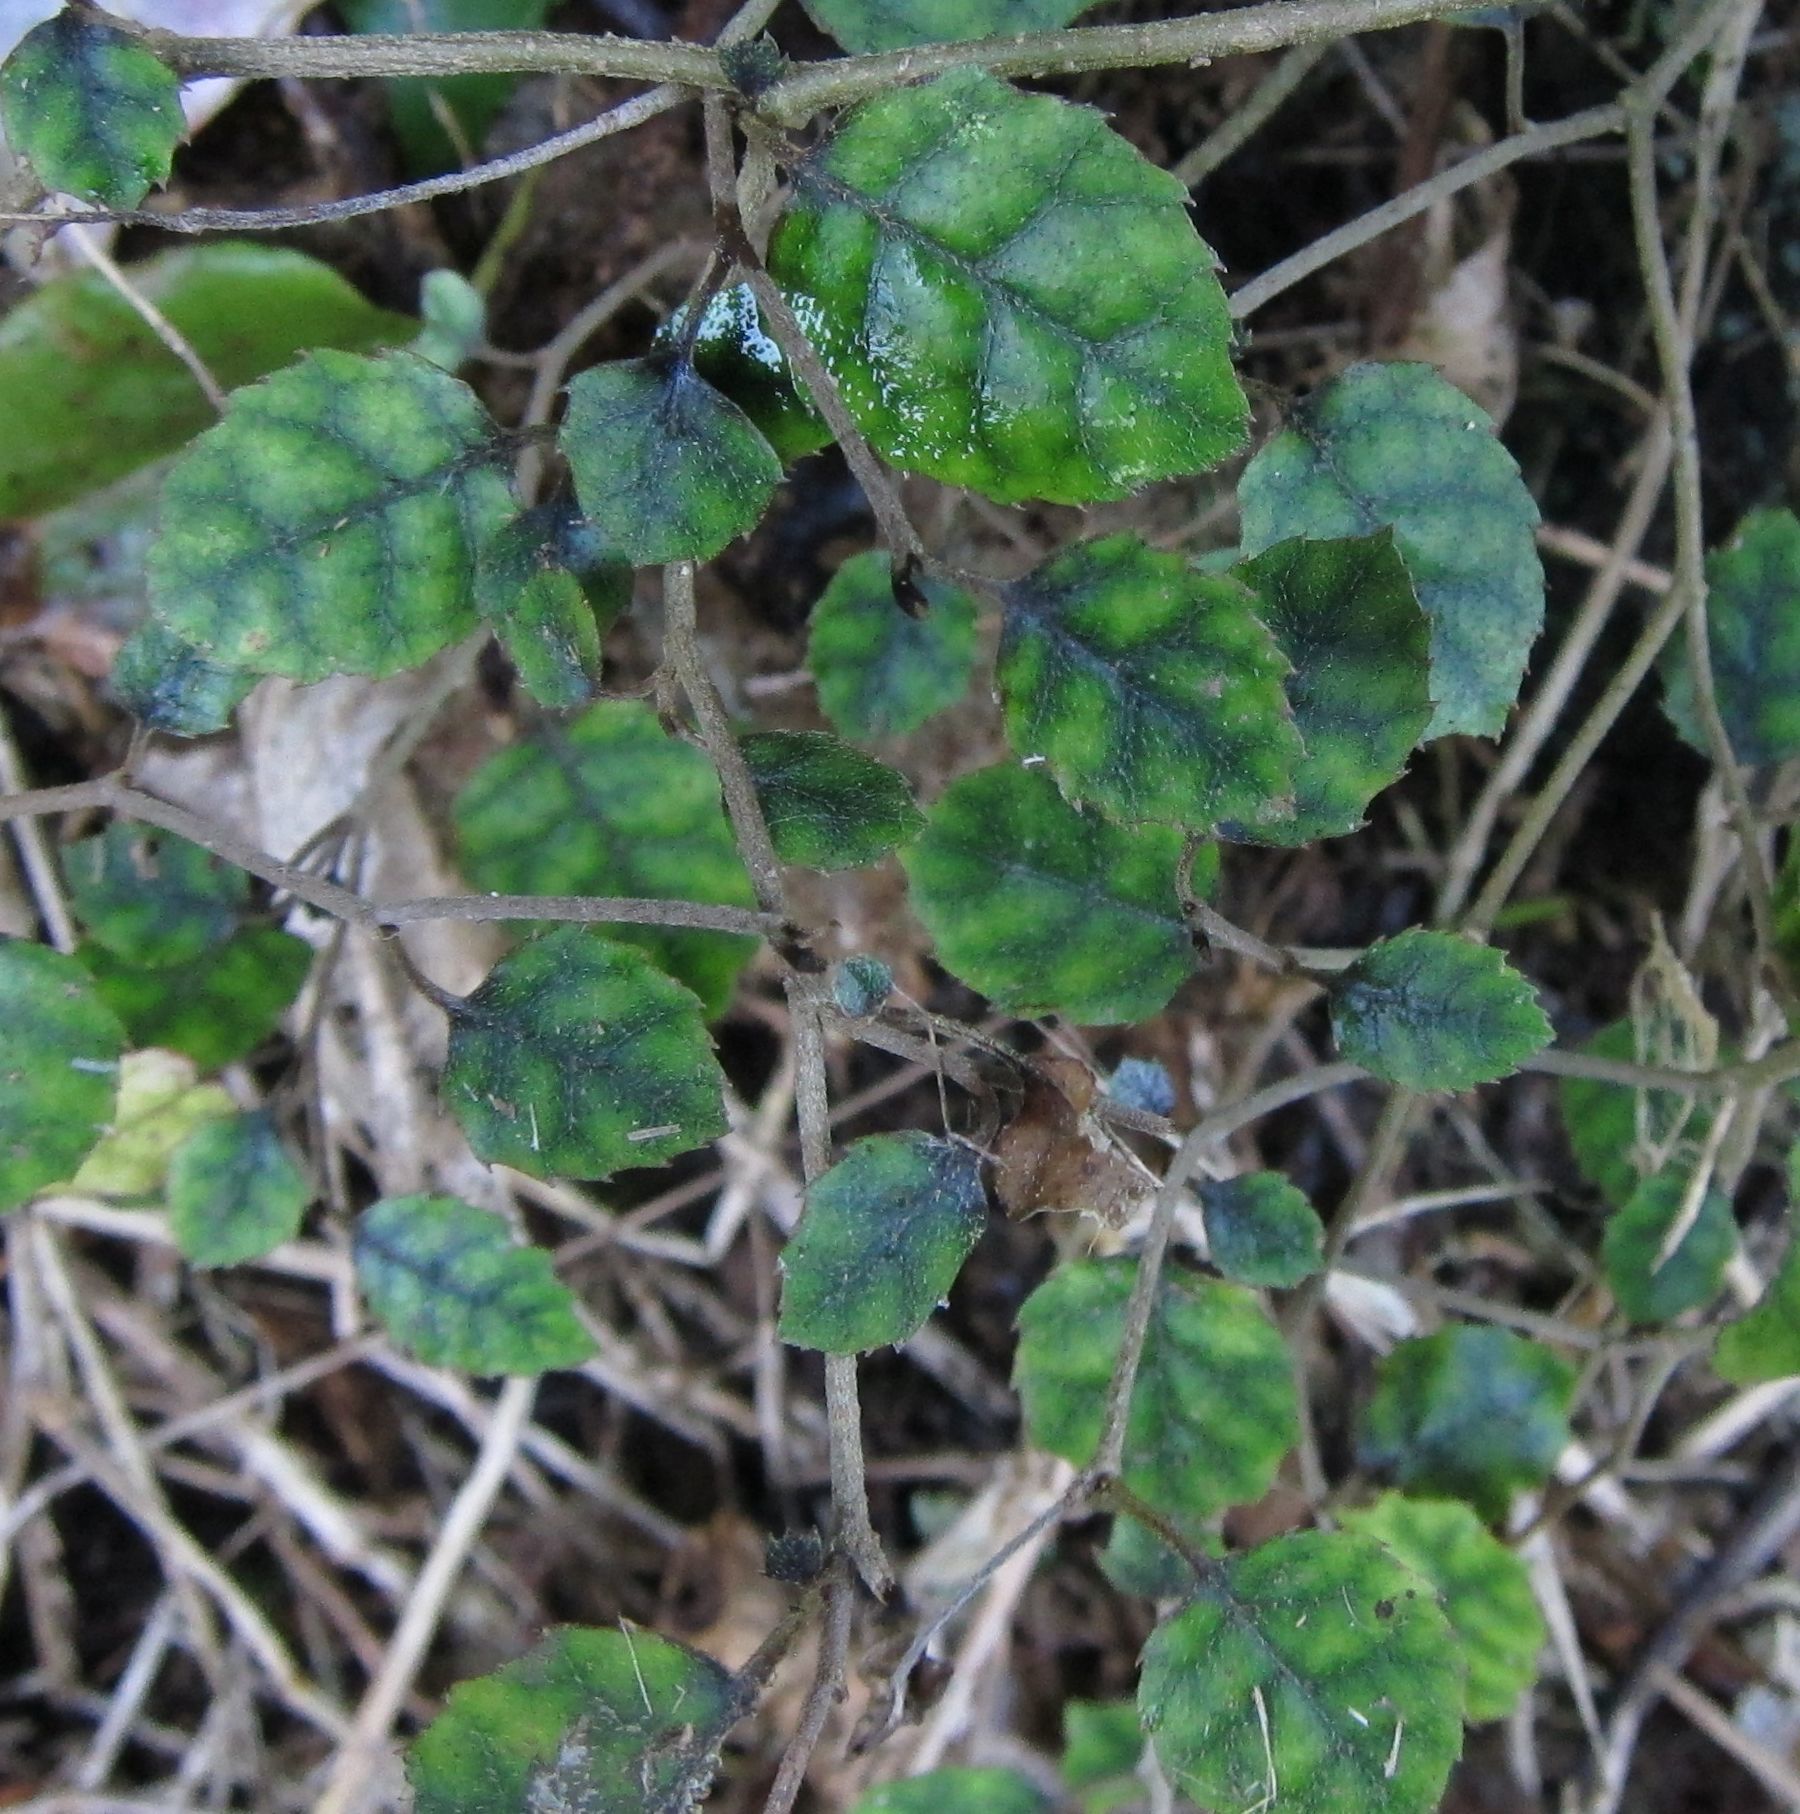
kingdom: Plantae
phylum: Tracheophyta
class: Magnoliopsida
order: Asterales
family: Rousseaceae
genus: Carpodetus
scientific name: Carpodetus serratus
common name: White mapau
